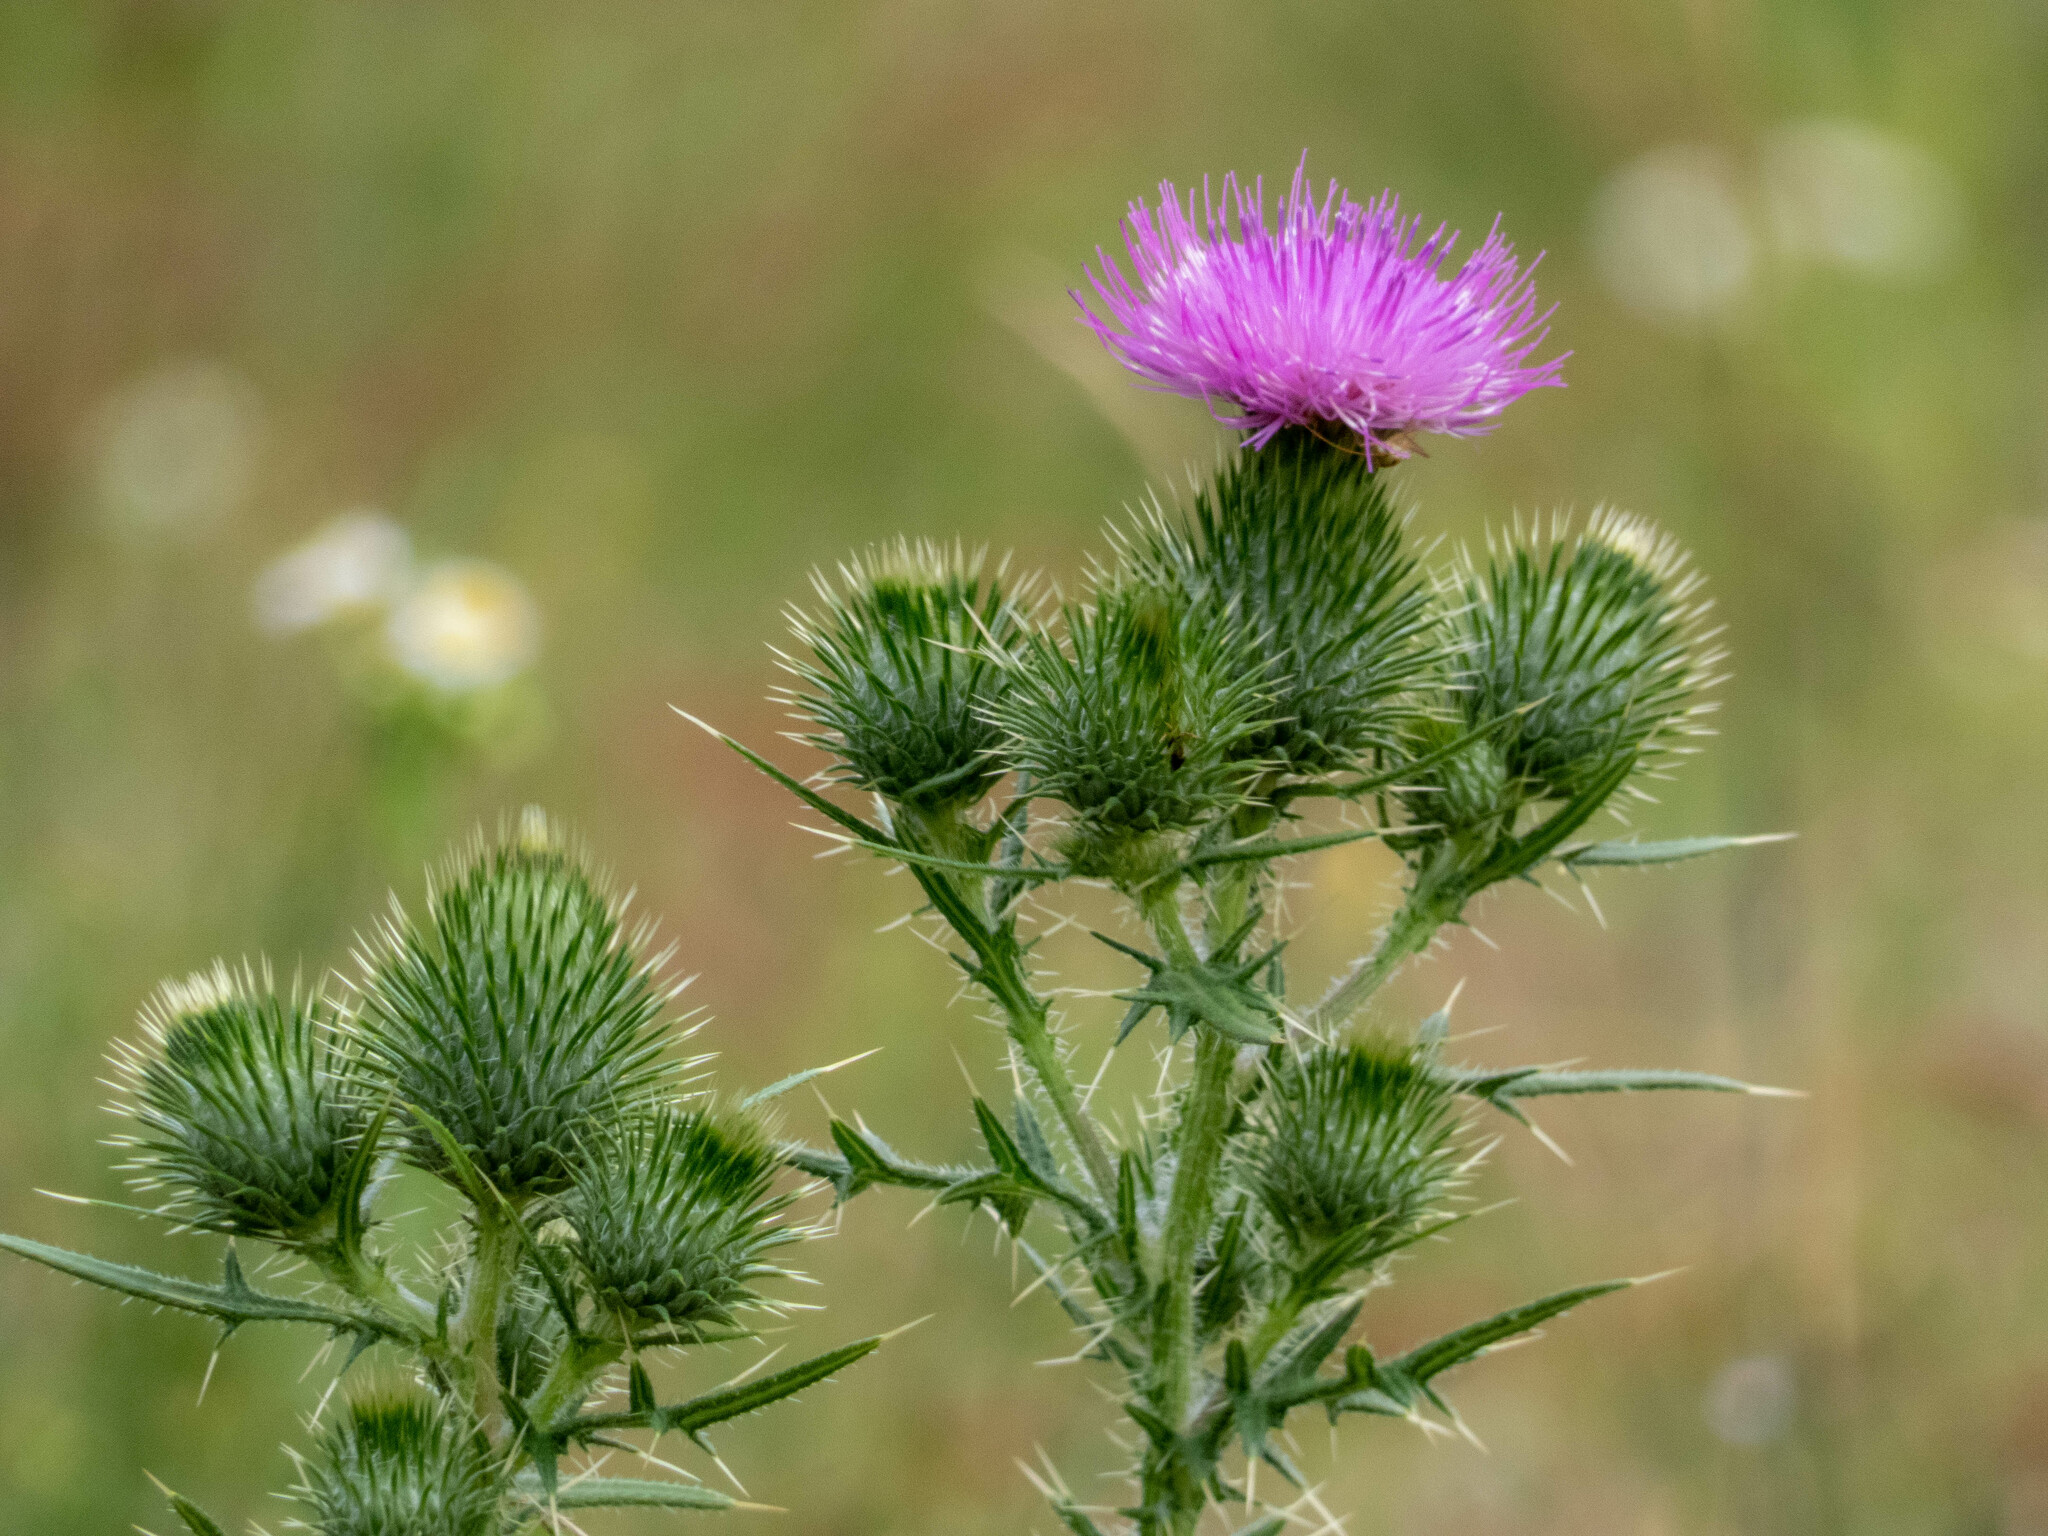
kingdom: Plantae
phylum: Tracheophyta
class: Magnoliopsida
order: Asterales
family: Asteraceae
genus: Cirsium
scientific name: Cirsium vulgare
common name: Bull thistle
